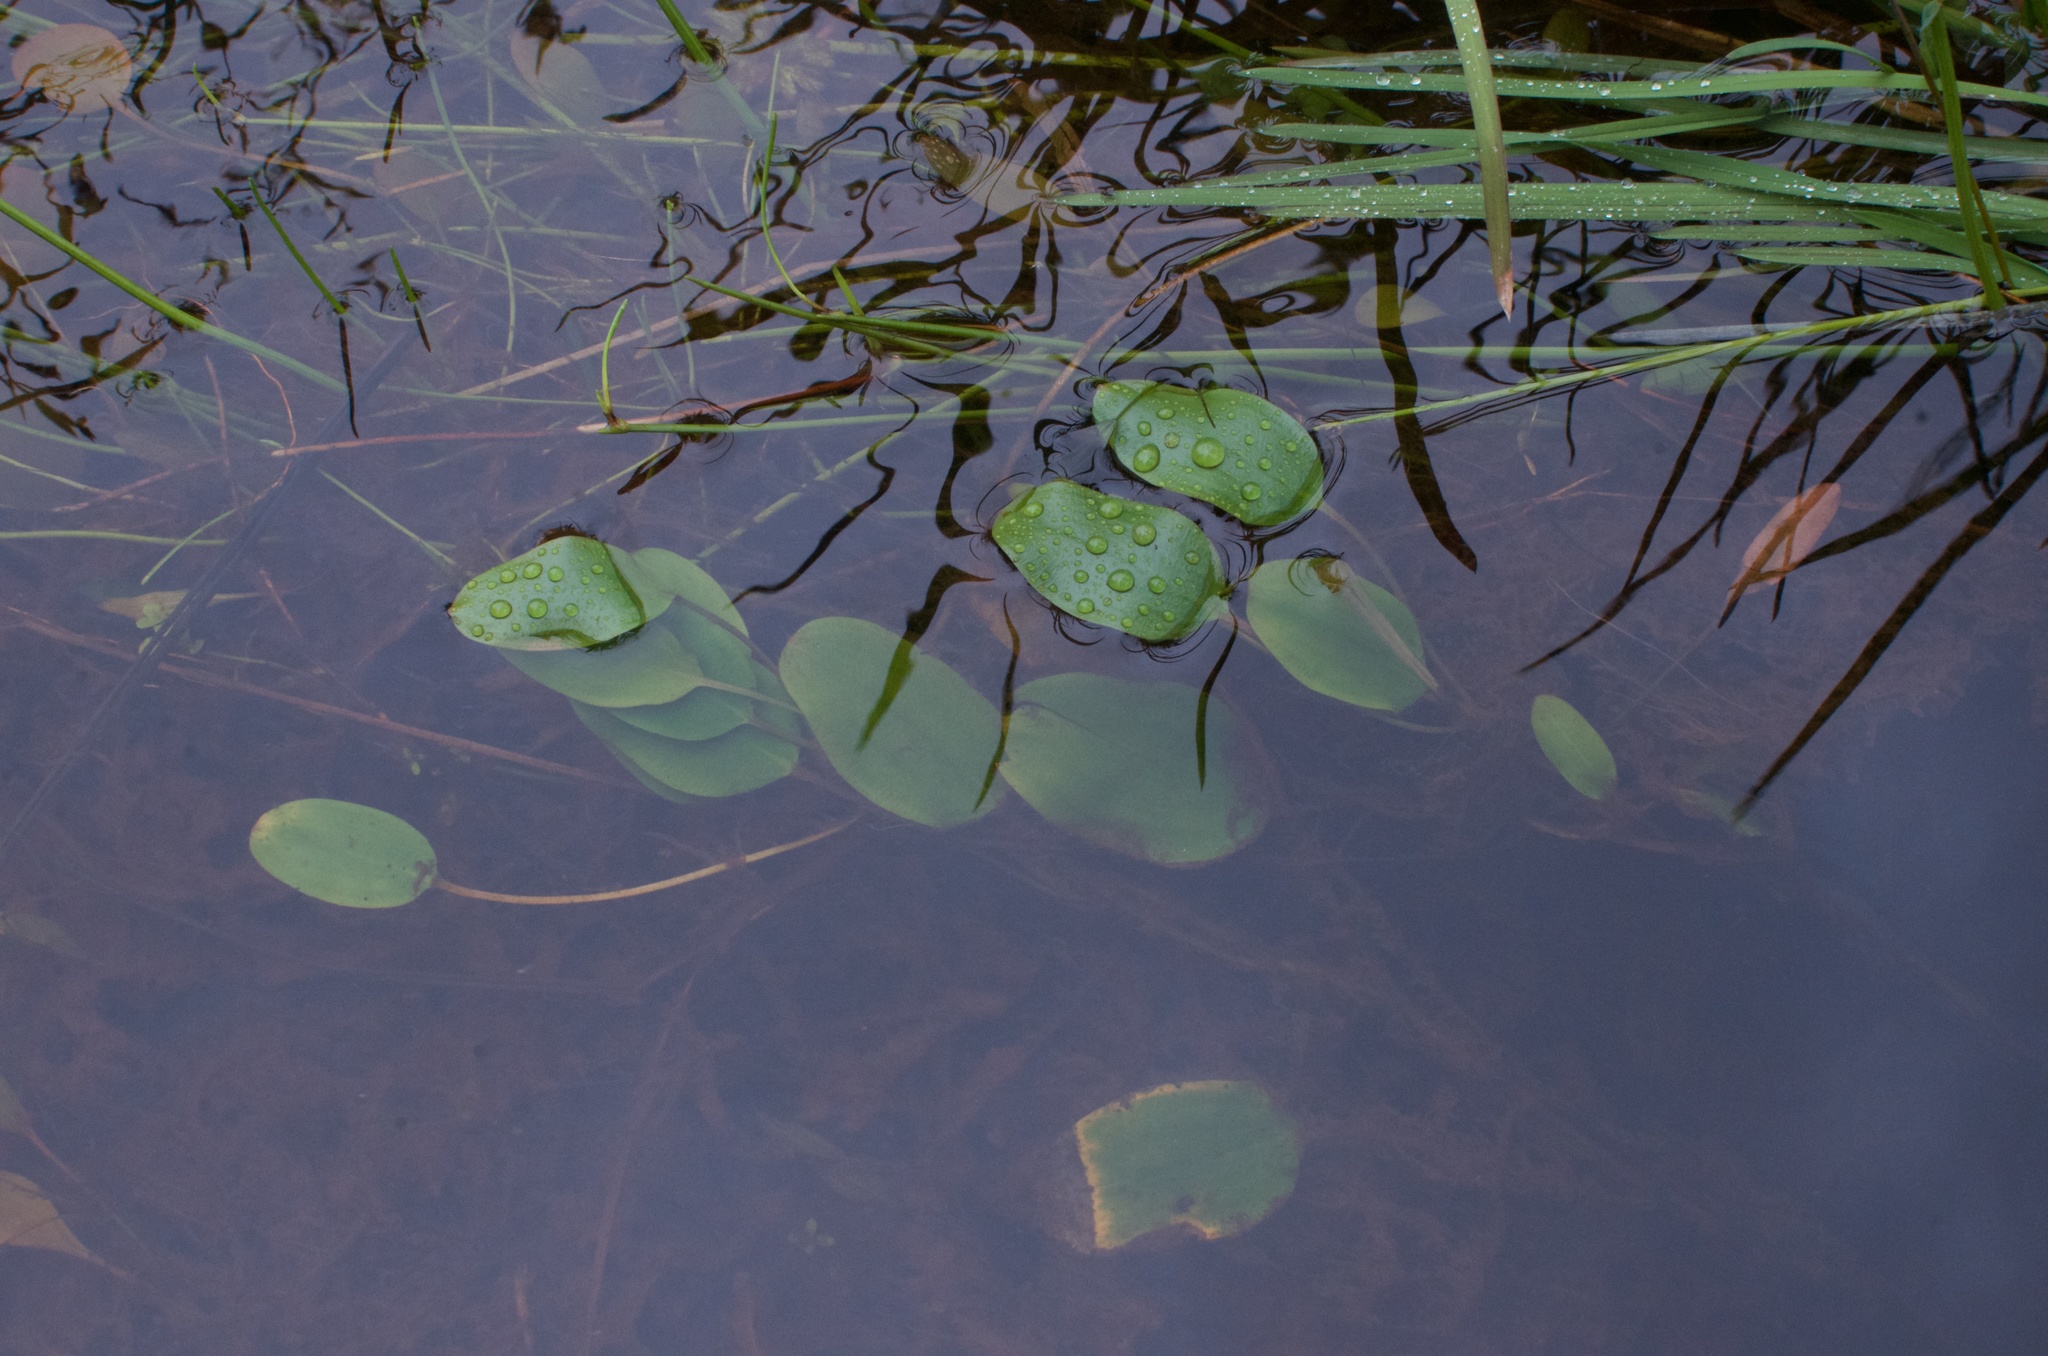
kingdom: Plantae
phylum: Tracheophyta
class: Liliopsida
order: Alismatales
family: Potamogetonaceae
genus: Potamogeton
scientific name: Potamogeton cheesemanii
